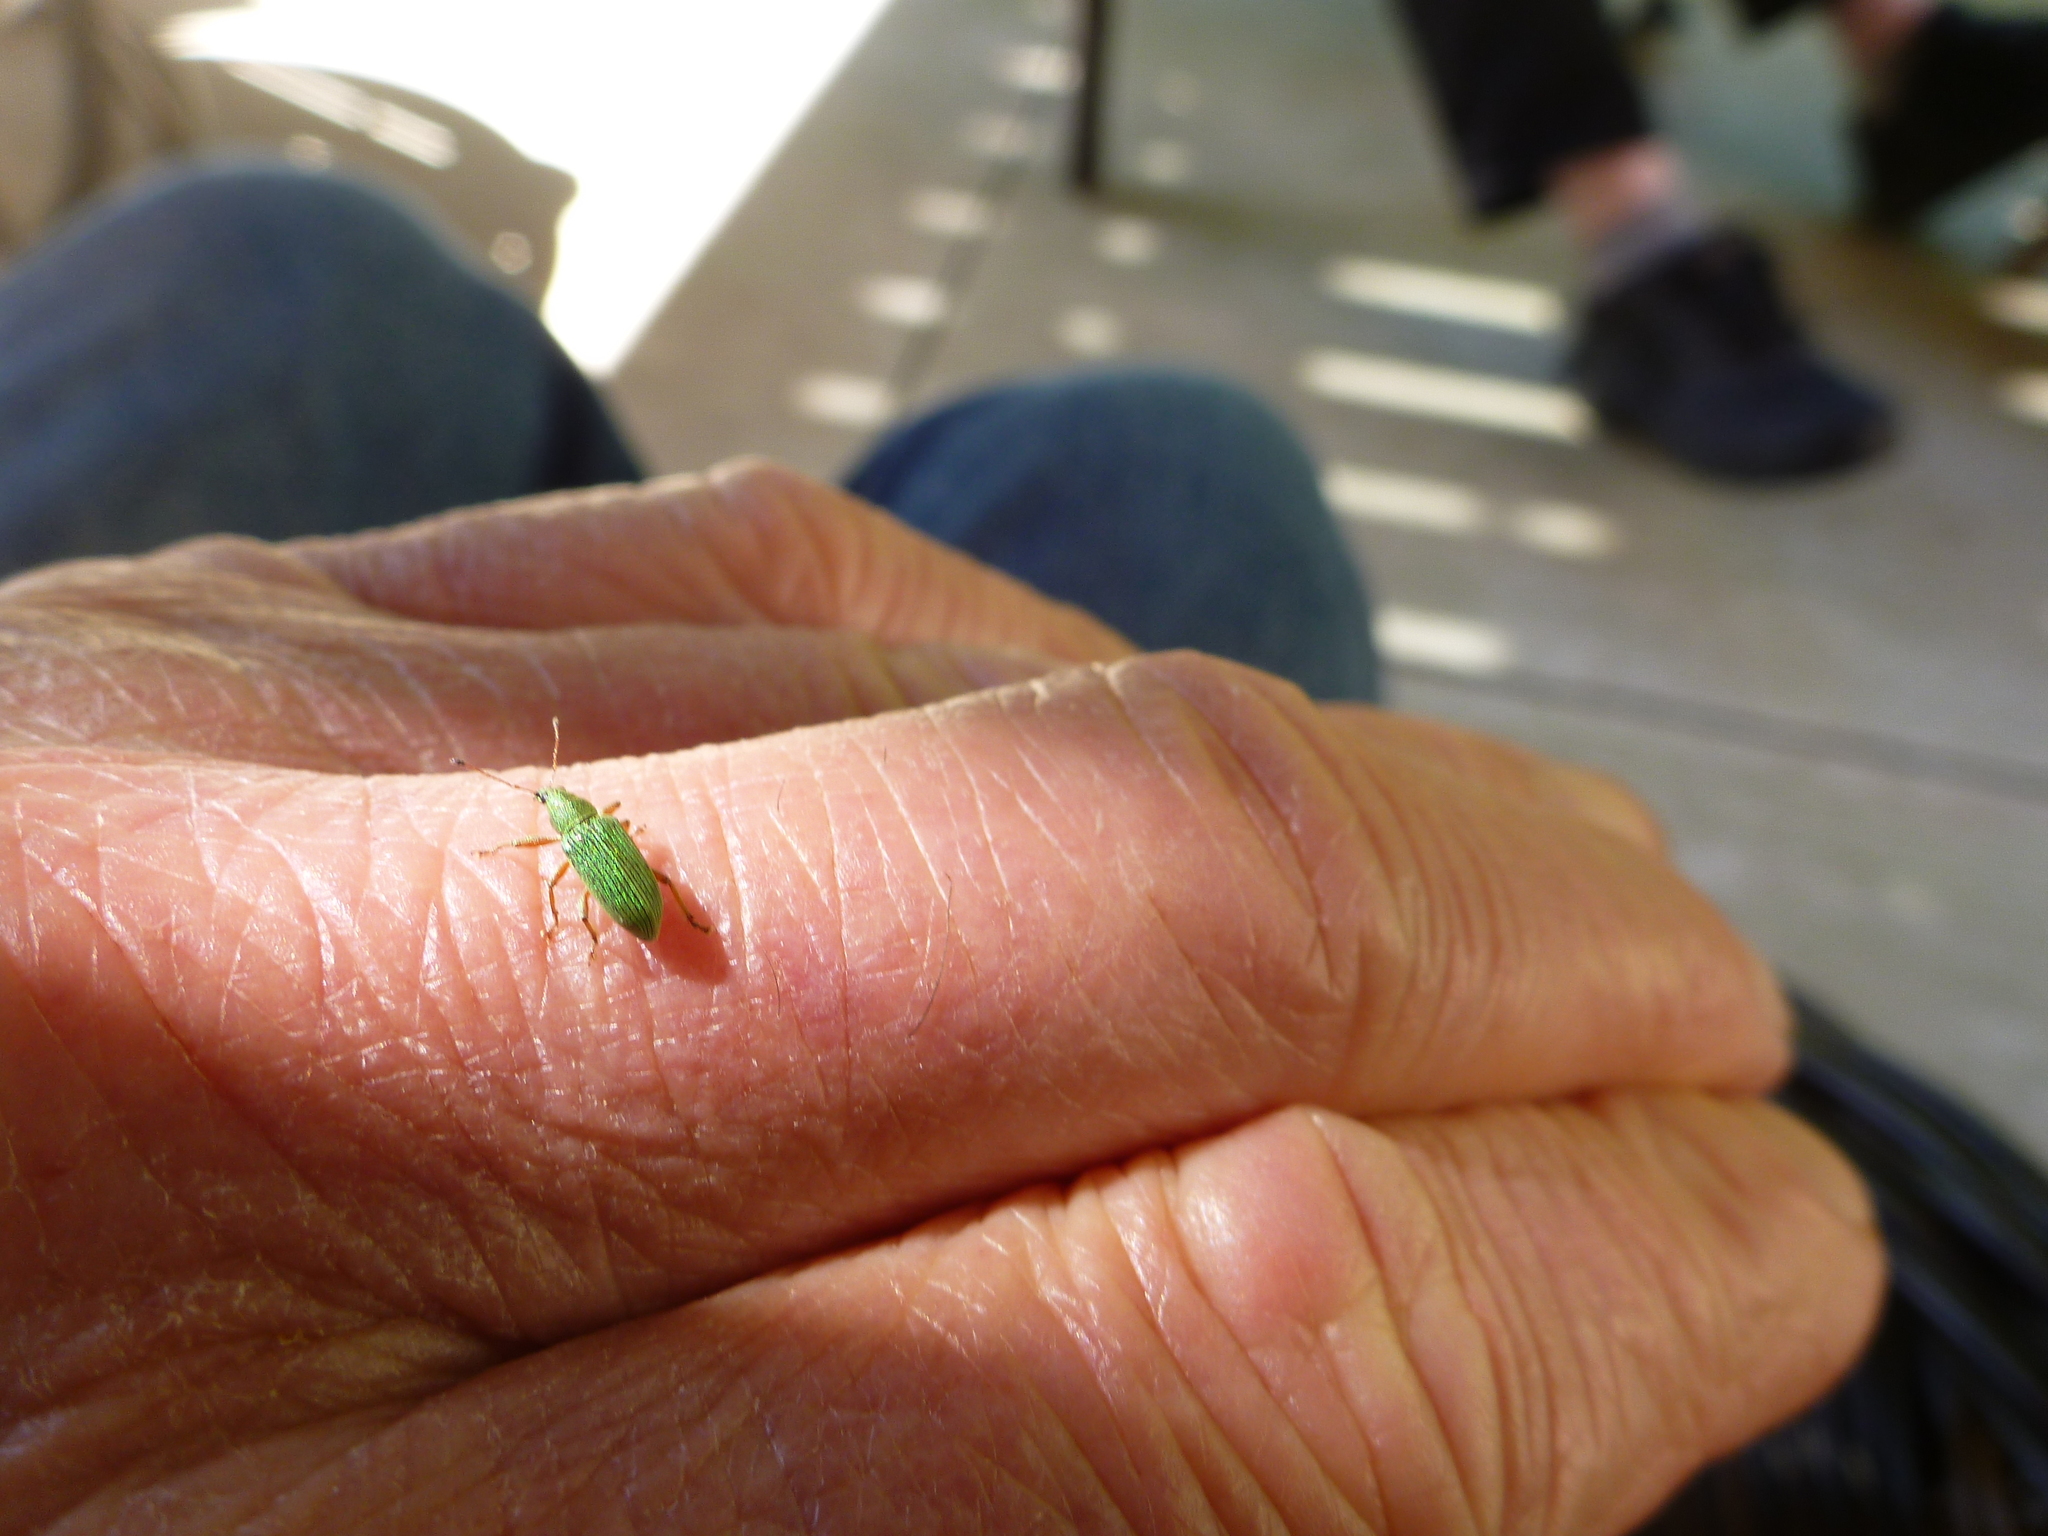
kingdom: Animalia
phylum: Arthropoda
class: Insecta
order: Coleoptera
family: Curculionidae
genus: Polydrusus
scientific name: Polydrusus formosus
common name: Weevil
